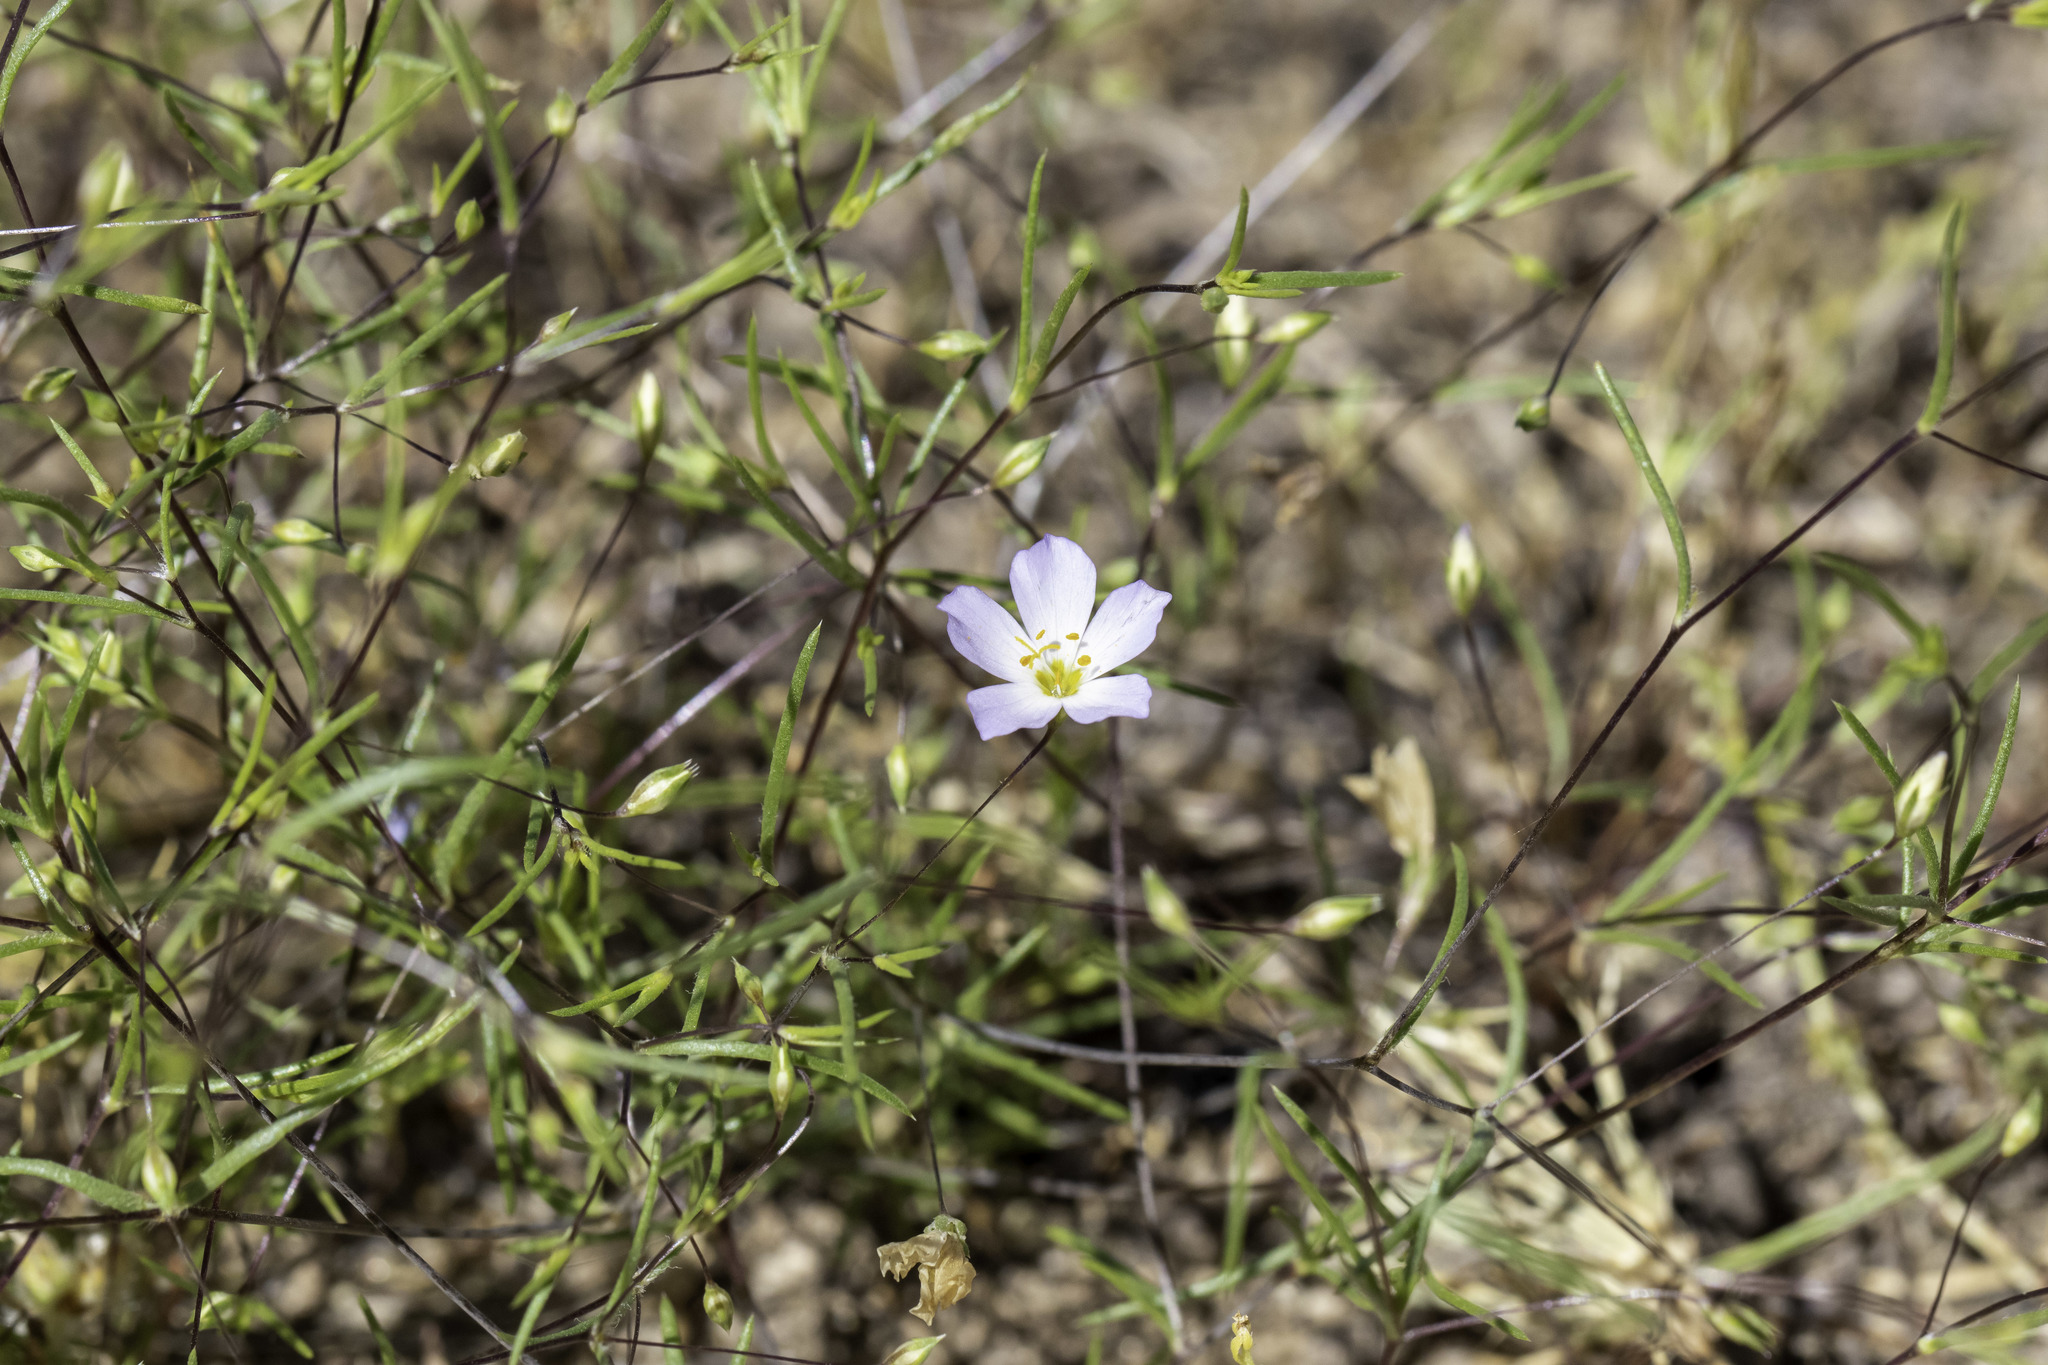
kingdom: Plantae
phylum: Tracheophyta
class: Magnoliopsida
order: Ericales
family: Polemoniaceae
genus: Leptosiphon
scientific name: Leptosiphon liniflorus
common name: Narrowflower flaxflower
